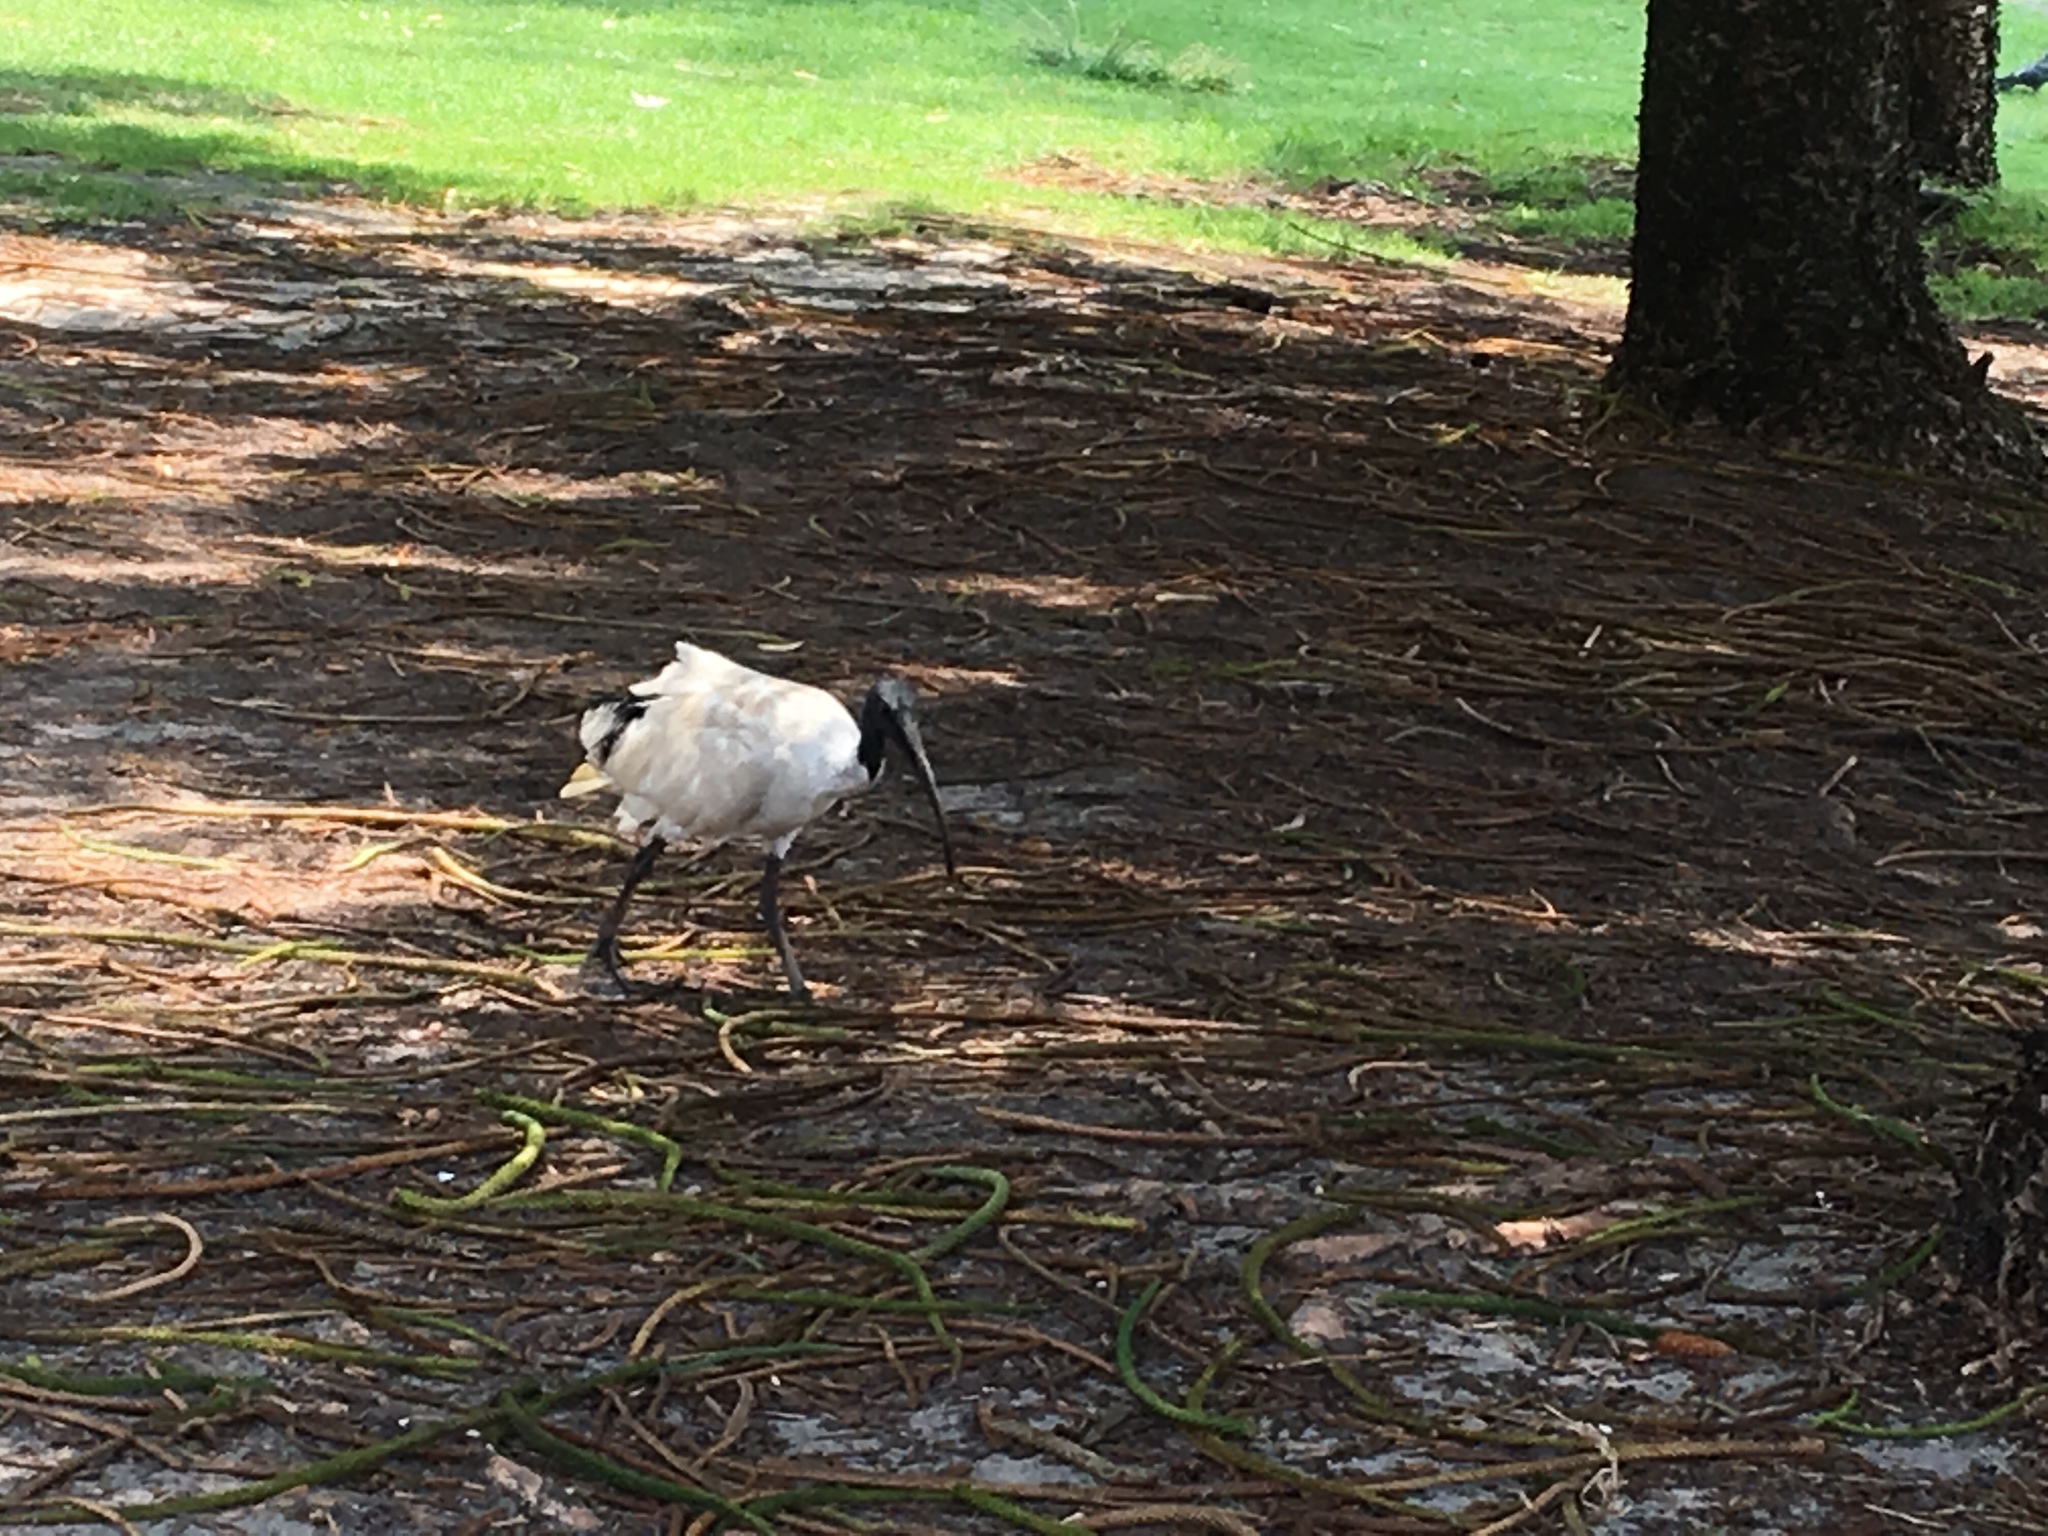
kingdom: Animalia
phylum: Chordata
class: Aves
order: Pelecaniformes
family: Threskiornithidae
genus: Threskiornis
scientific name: Threskiornis molucca
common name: Australian white ibis
